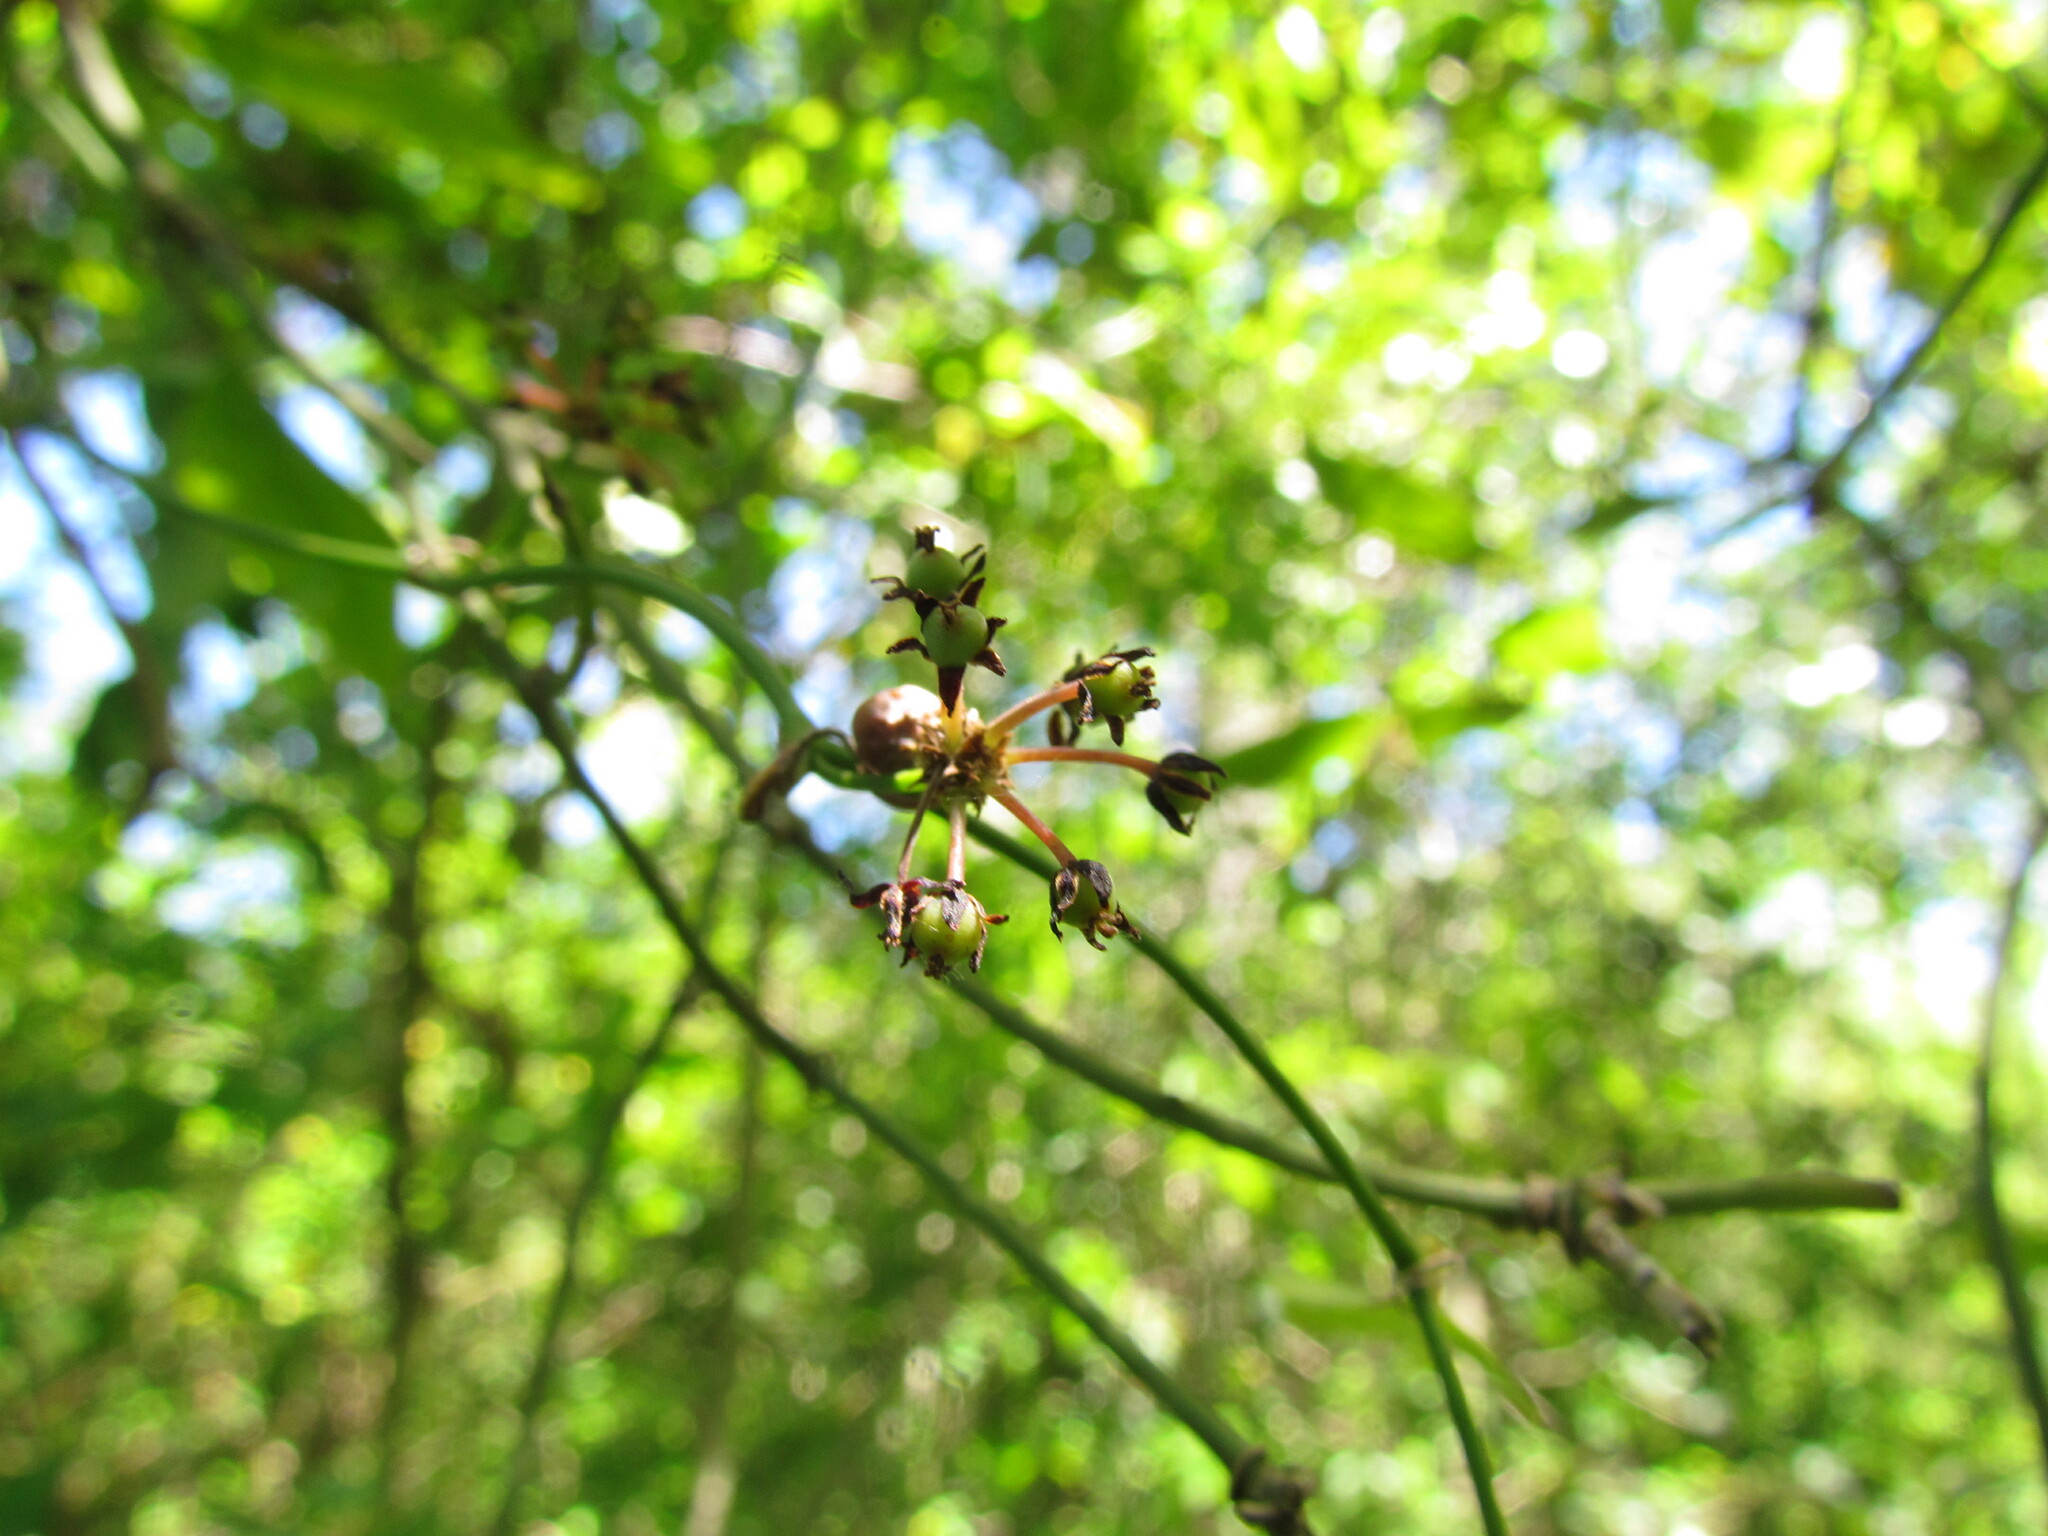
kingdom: Plantae
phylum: Tracheophyta
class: Liliopsida
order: Liliales
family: Smilacaceae
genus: Smilax
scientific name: Smilax campestris
